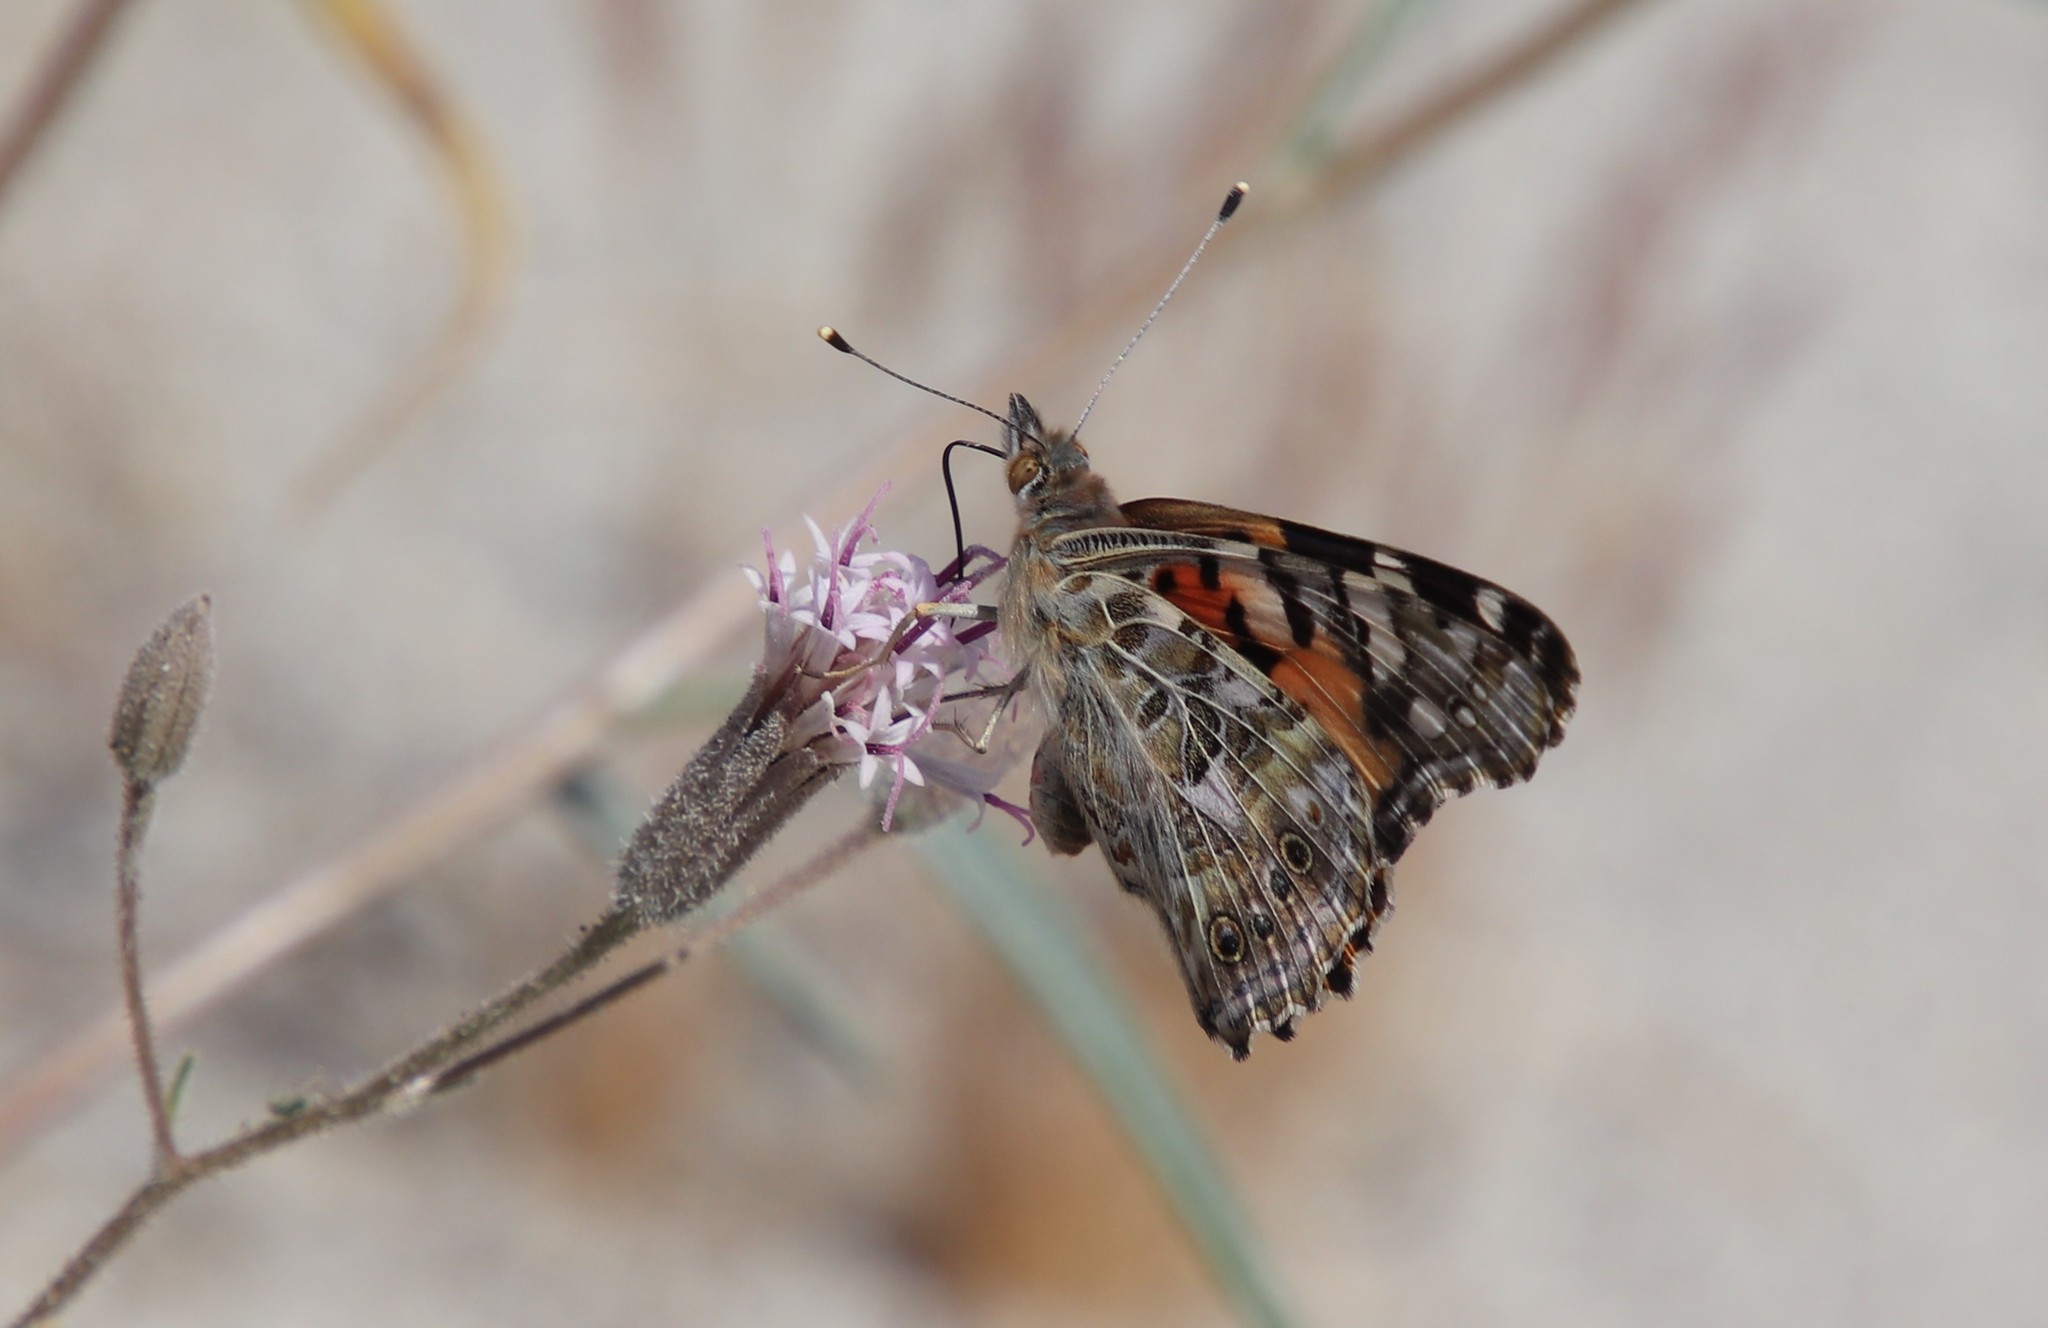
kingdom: Animalia
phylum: Arthropoda
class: Insecta
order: Lepidoptera
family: Nymphalidae
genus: Vanessa
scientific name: Vanessa cardui
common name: Painted lady
